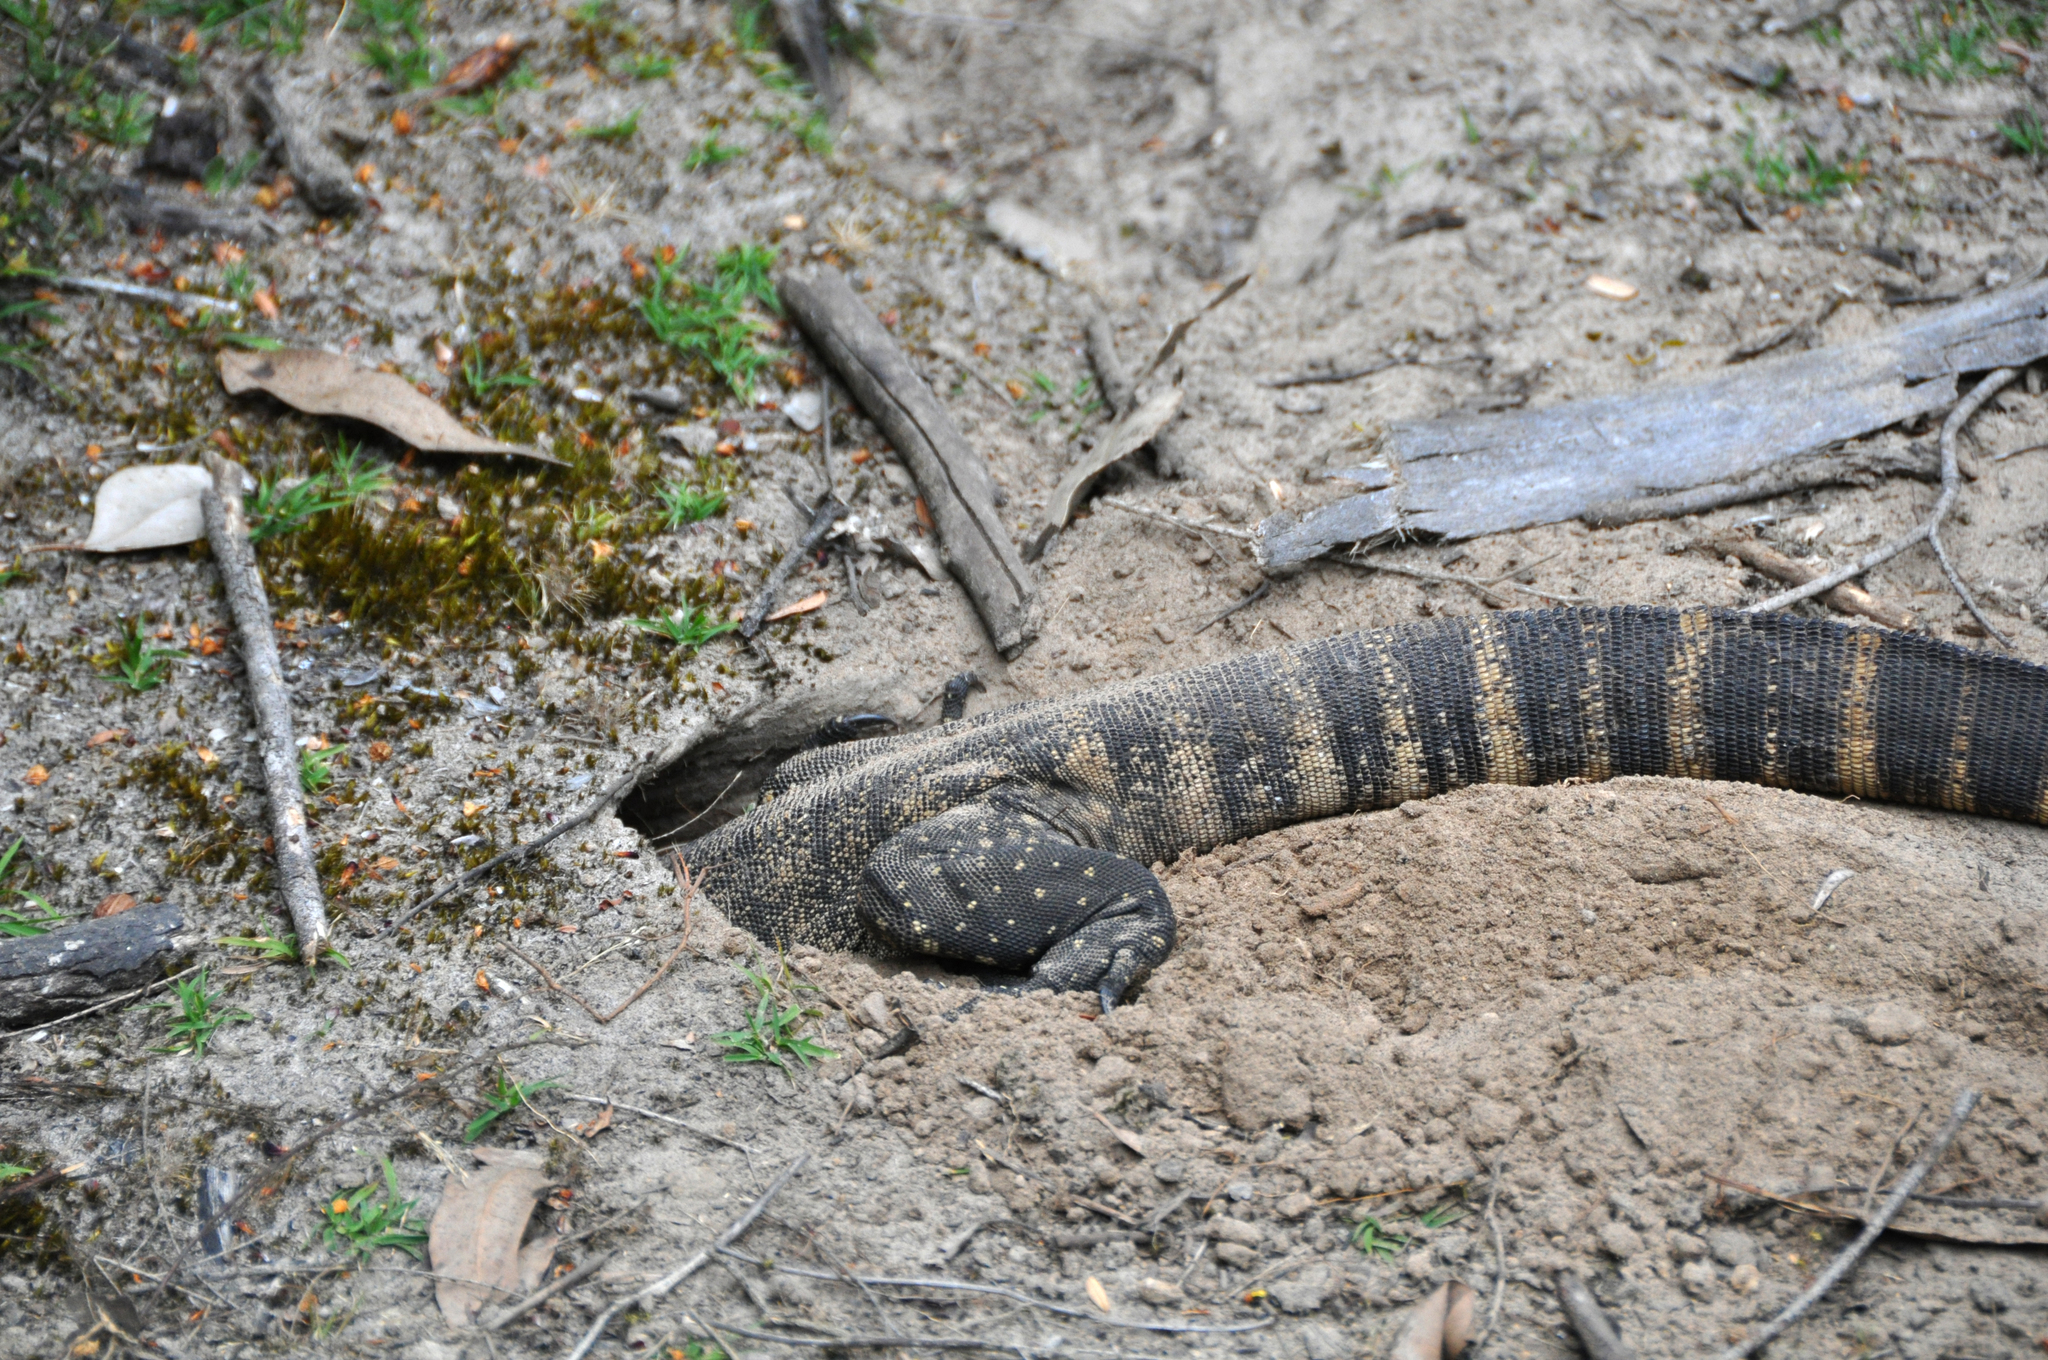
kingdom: Animalia
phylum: Chordata
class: Squamata
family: Varanidae
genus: Varanus
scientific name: Varanus rosenbergi
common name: Heath monitor
